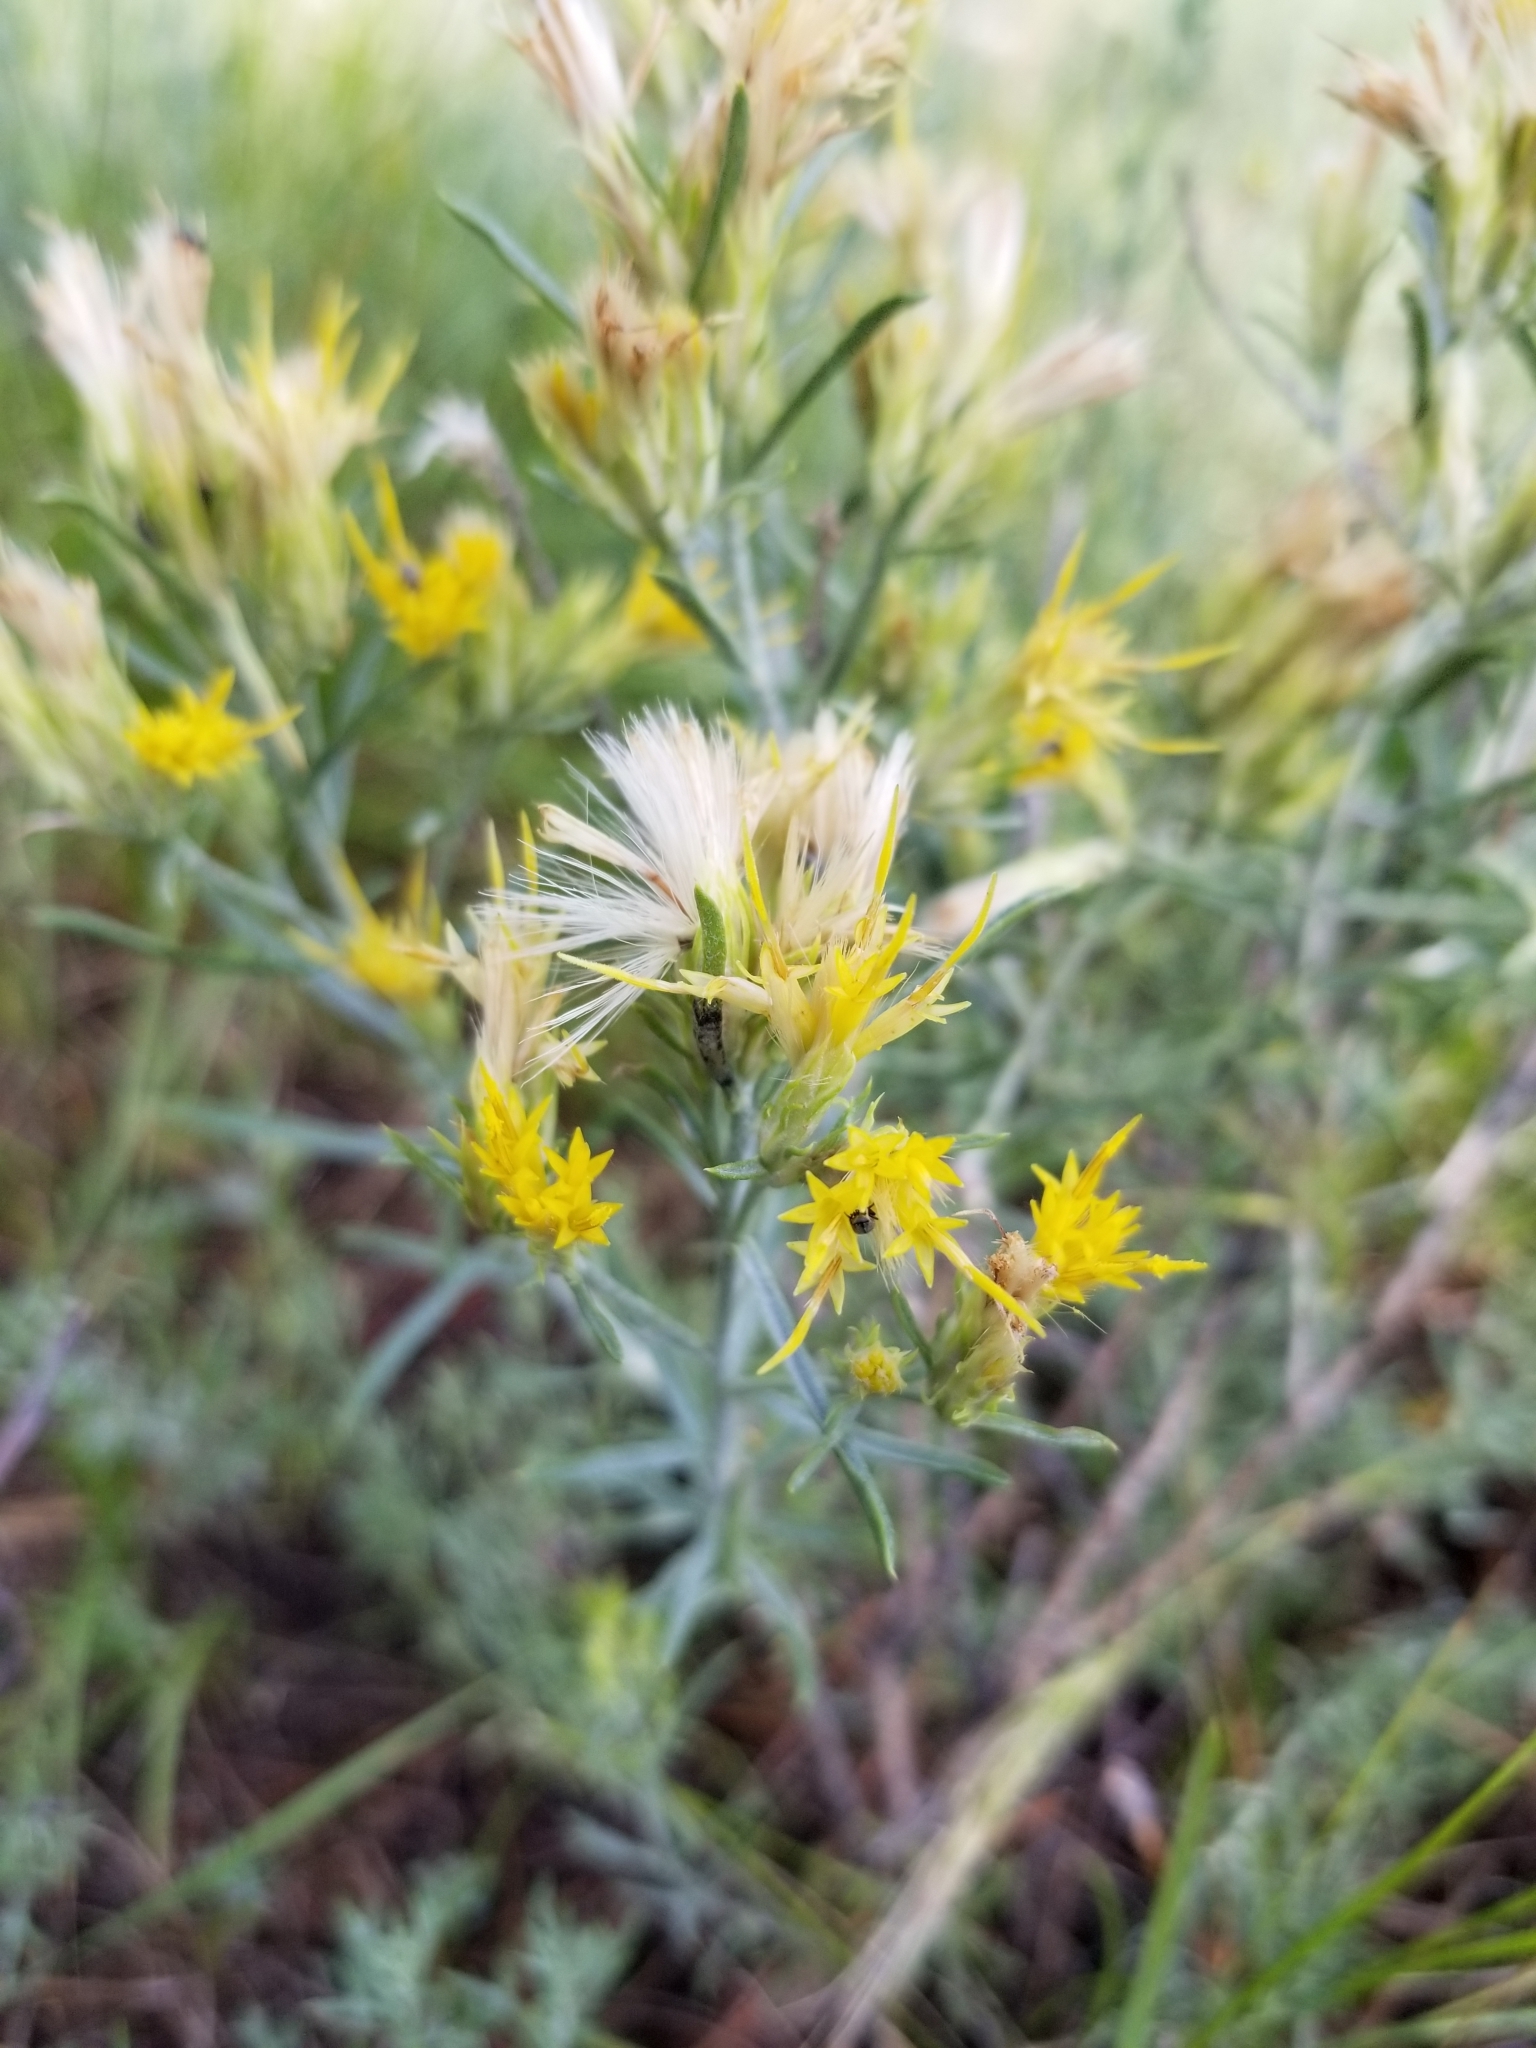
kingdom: Plantae
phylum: Tracheophyta
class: Magnoliopsida
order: Asterales
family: Asteraceae
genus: Ericameria
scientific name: Ericameria nauseosa
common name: Rubber rabbitbrush
